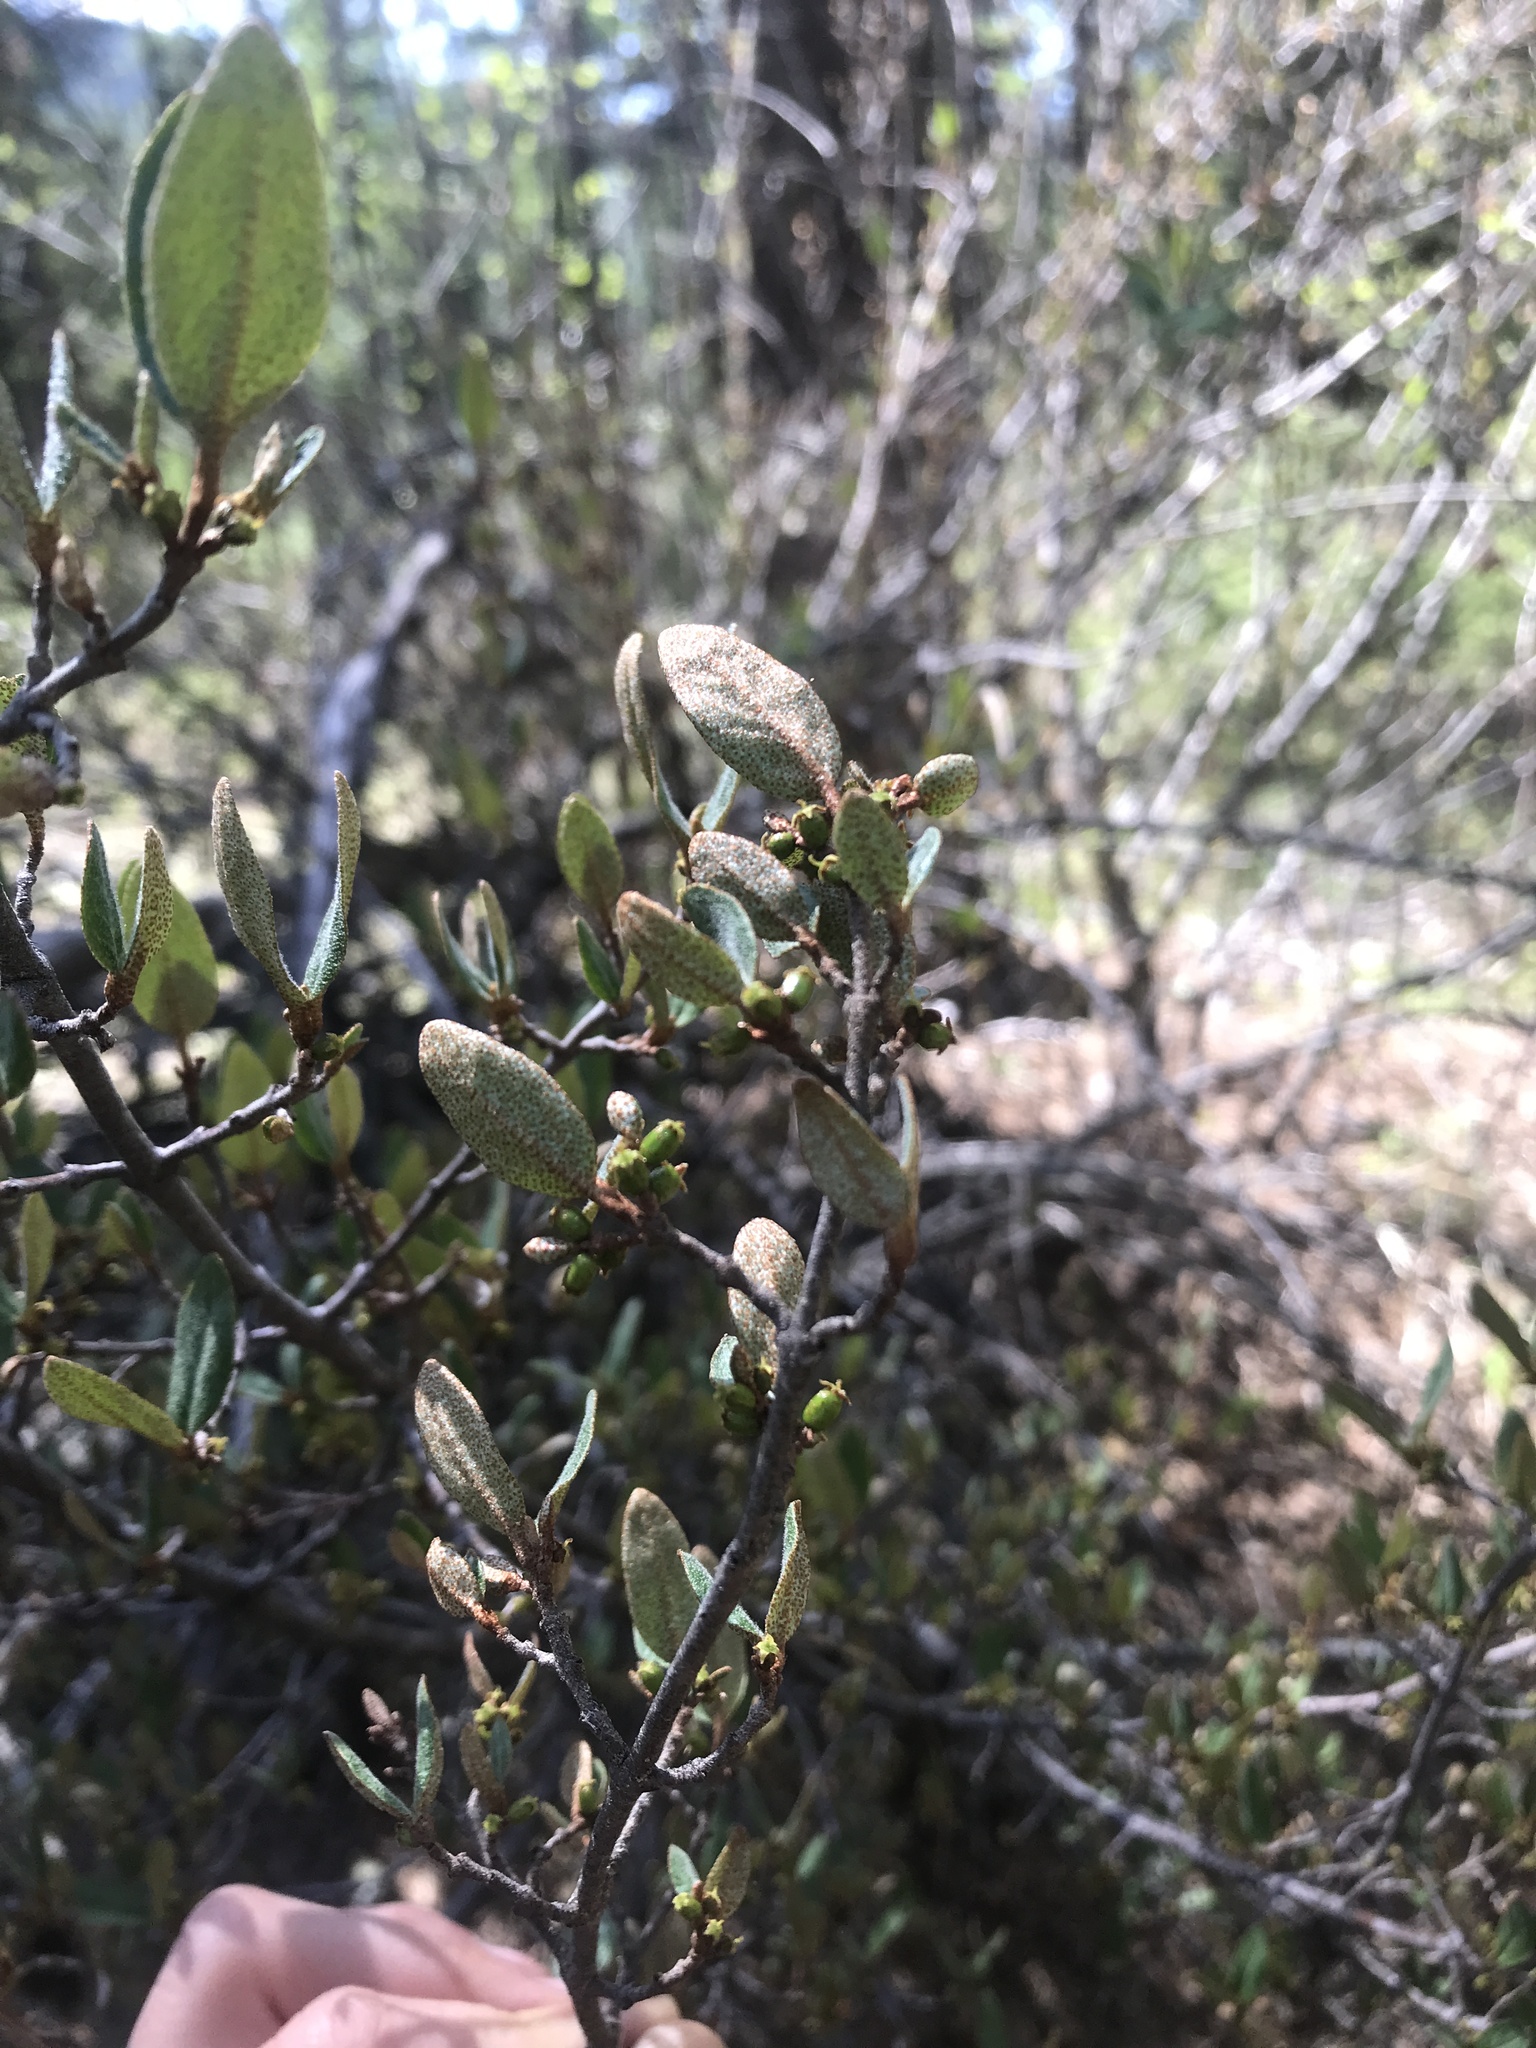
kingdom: Plantae
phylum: Tracheophyta
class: Magnoliopsida
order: Rosales
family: Elaeagnaceae
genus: Shepherdia
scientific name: Shepherdia canadensis
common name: Soapberry
